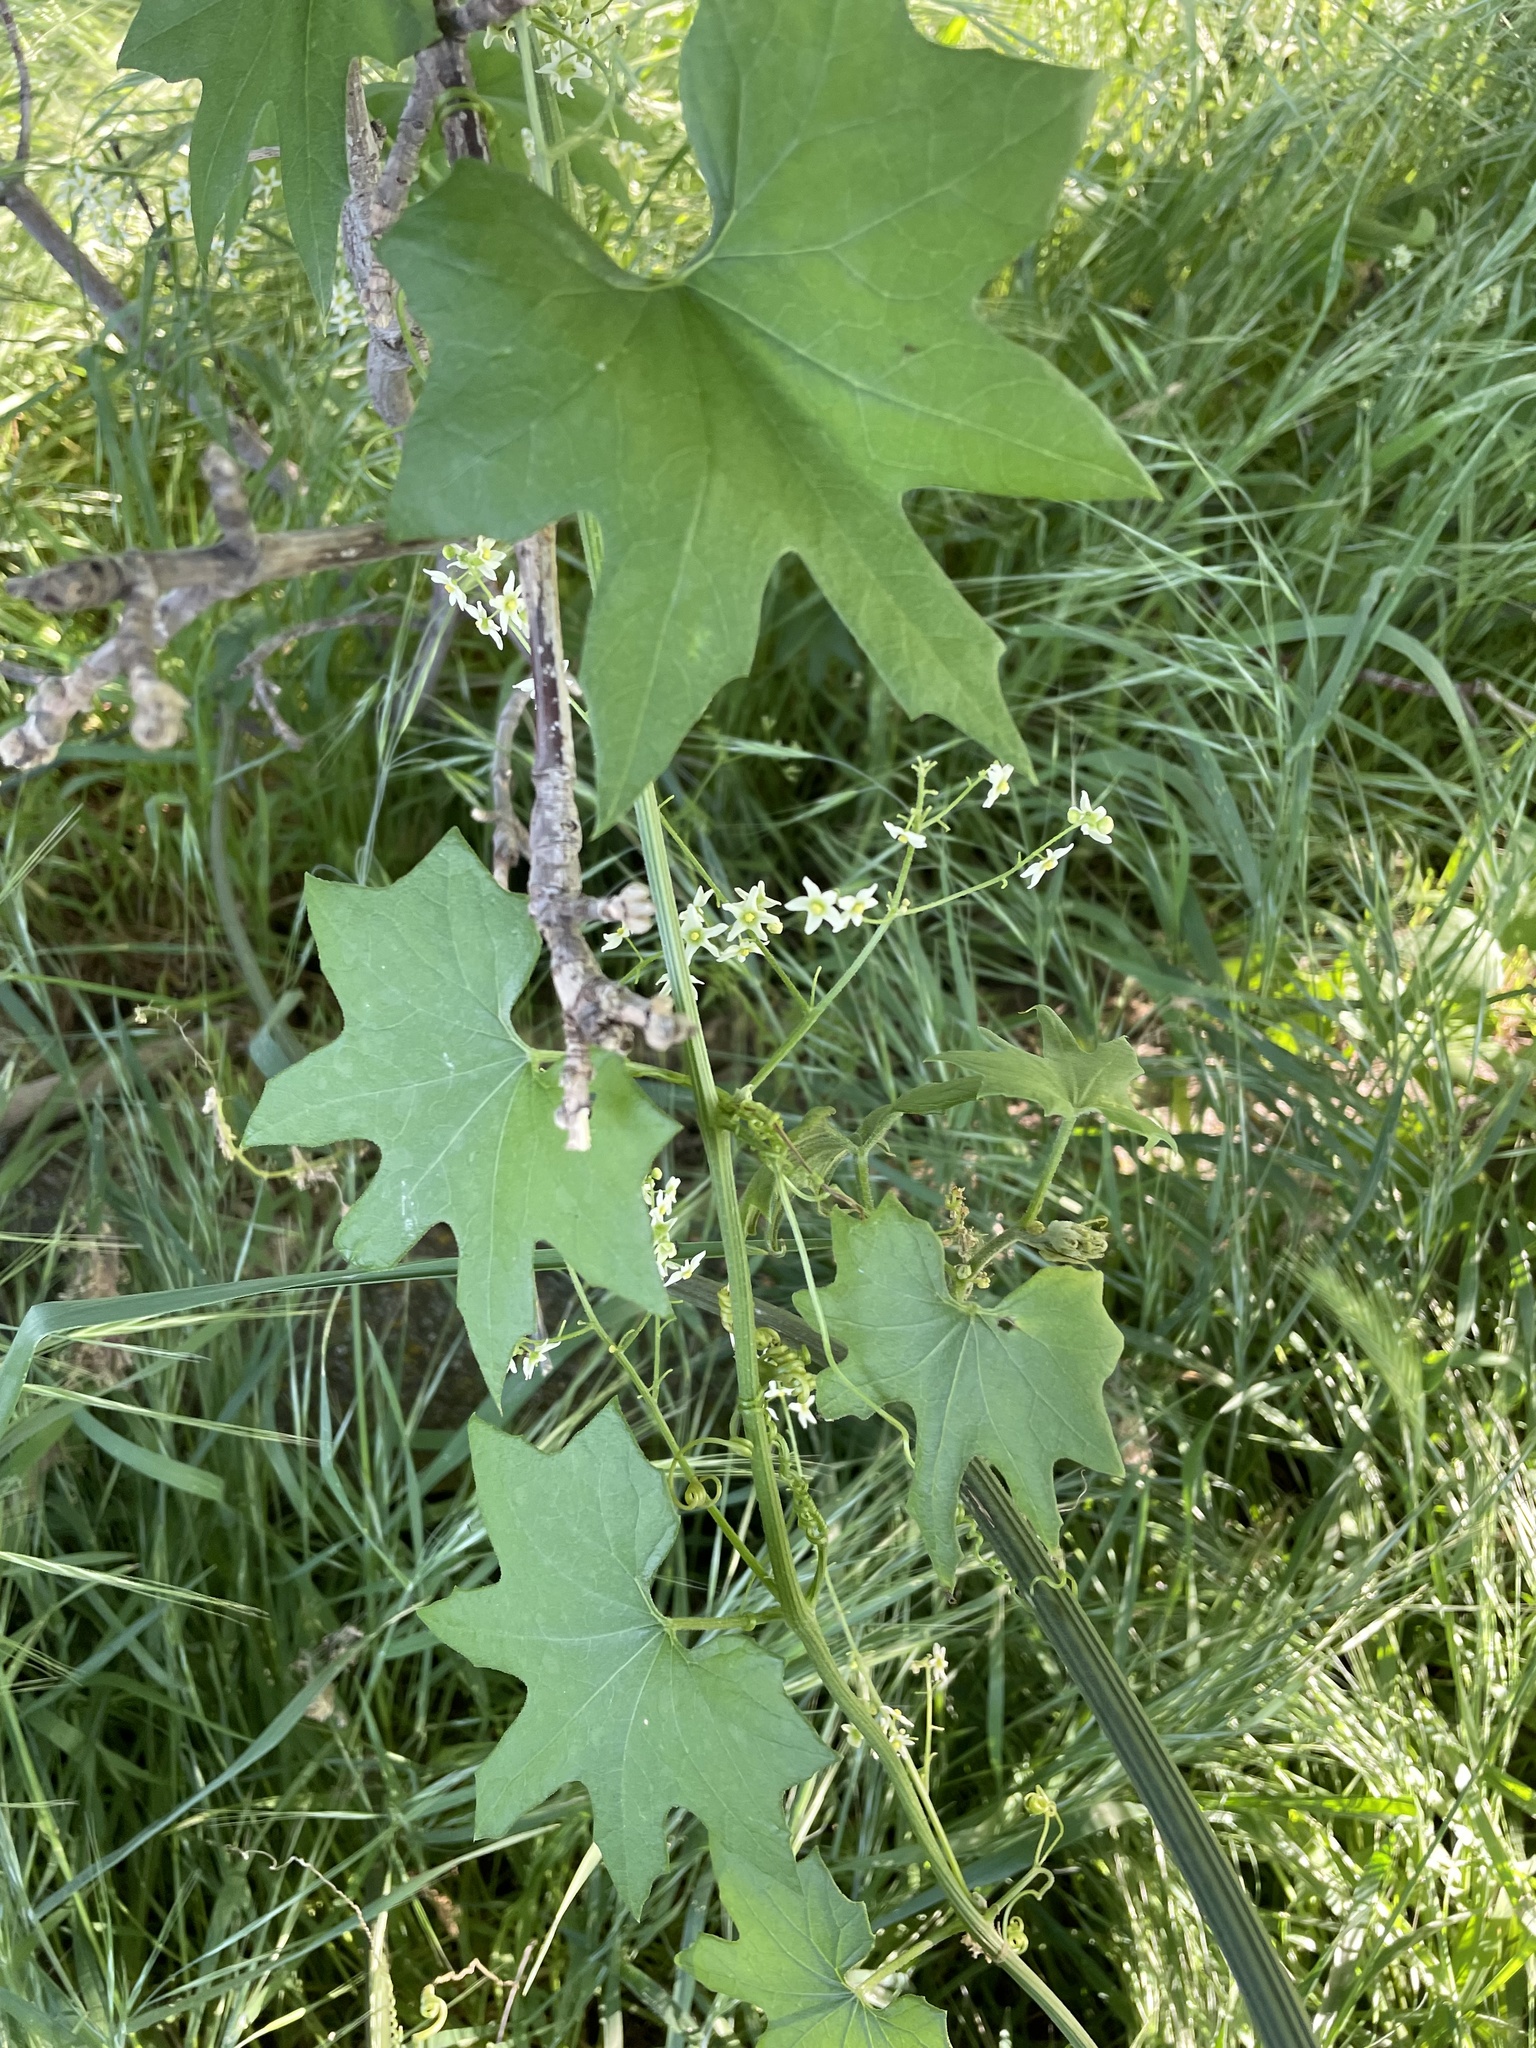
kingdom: Plantae
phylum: Tracheophyta
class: Magnoliopsida
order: Cucurbitales
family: Cucurbitaceae
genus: Marah
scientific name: Marah fabacea
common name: California manroot
